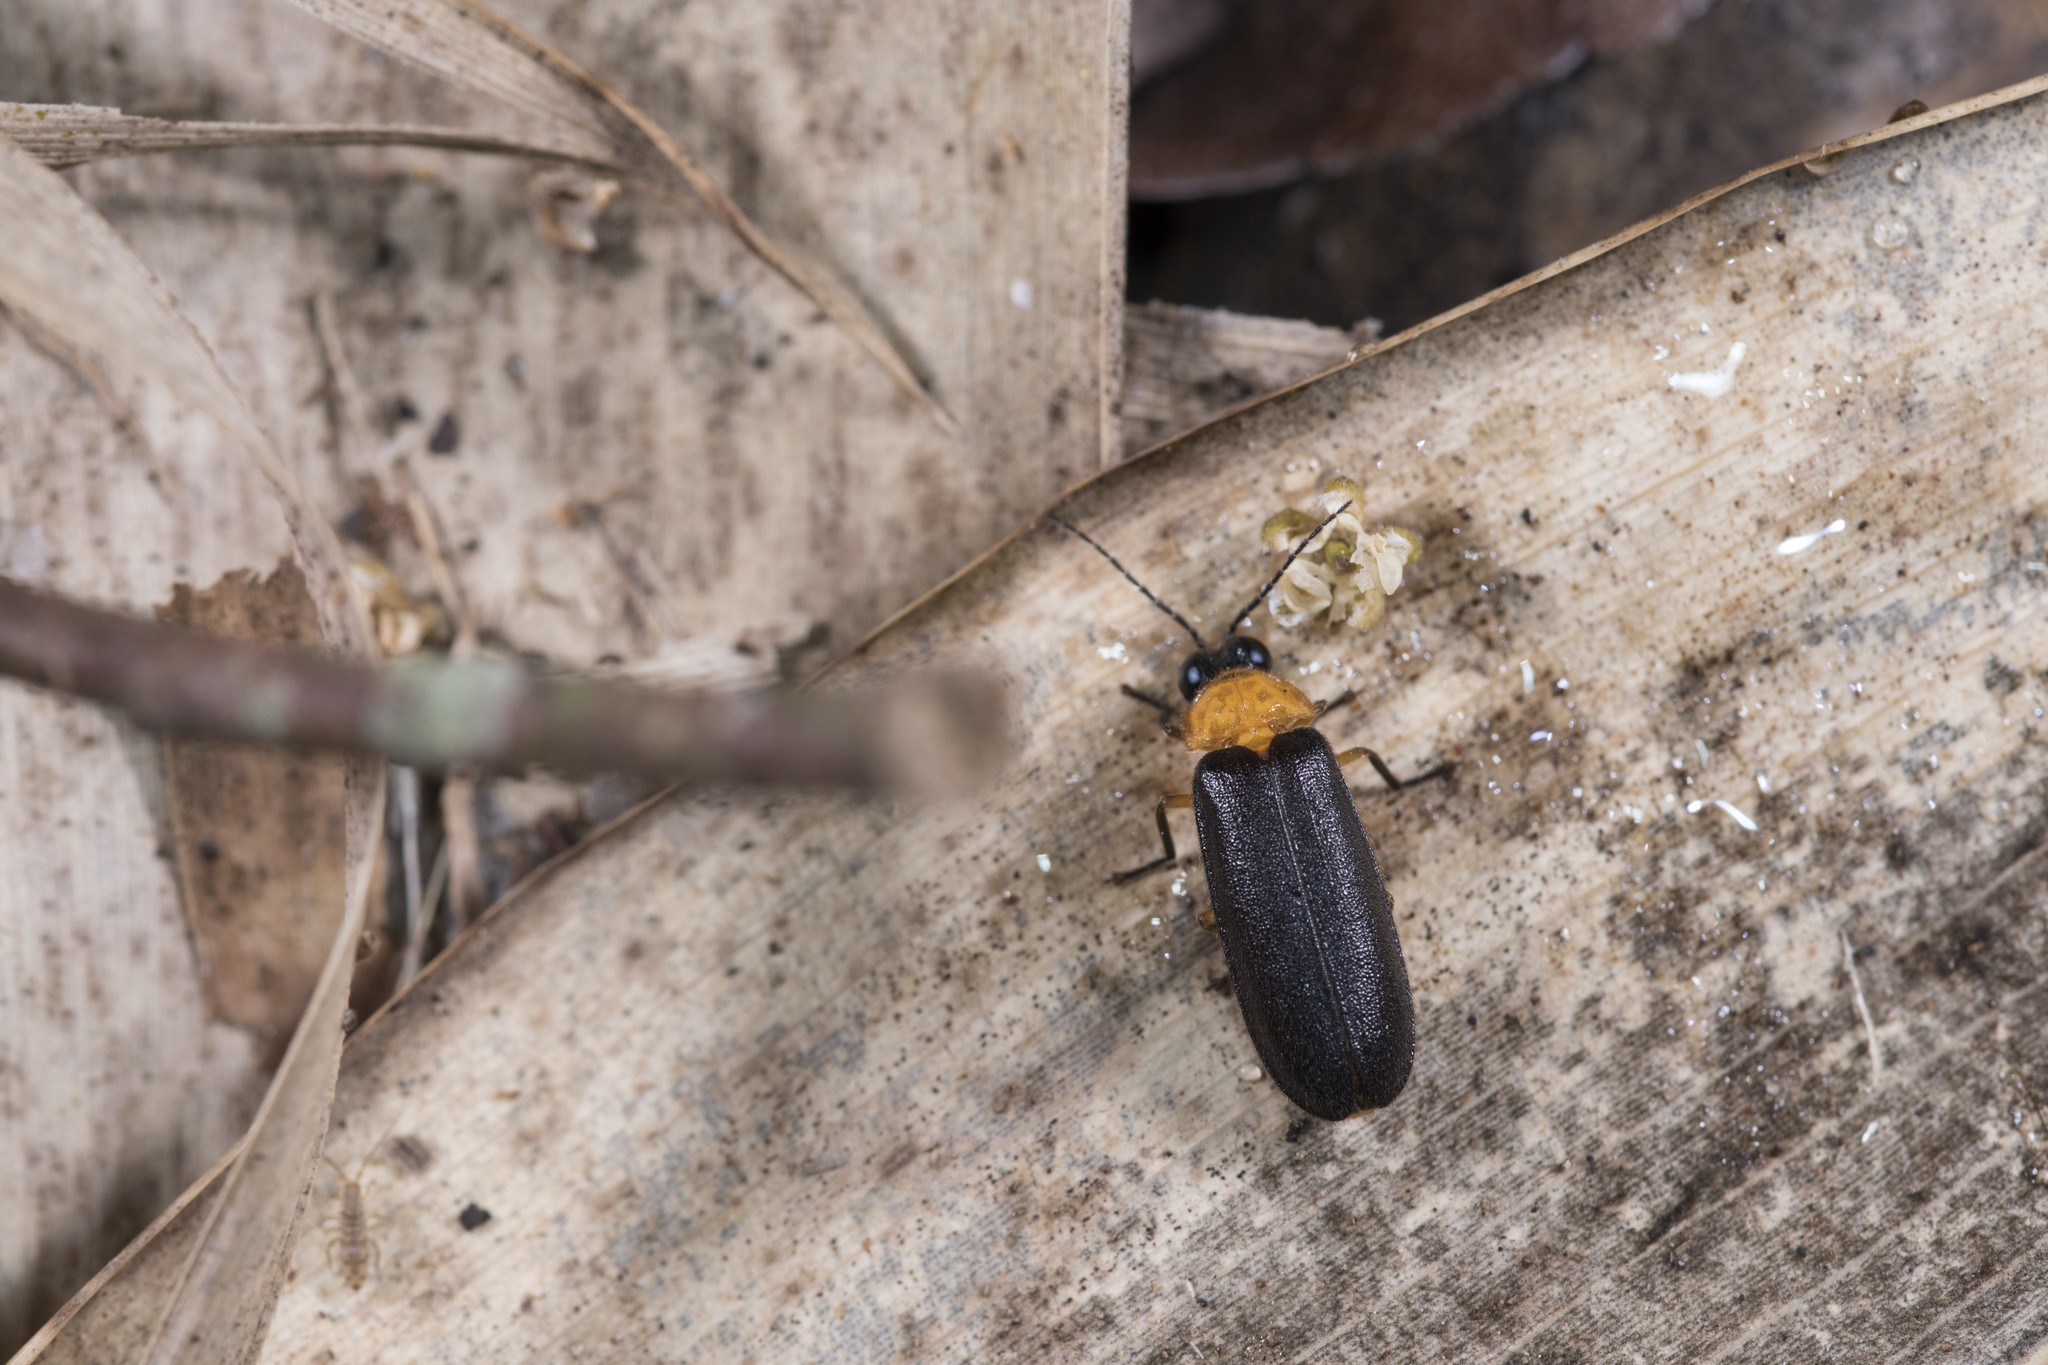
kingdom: Animalia
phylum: Arthropoda
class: Insecta
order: Coleoptera
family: Lampyridae
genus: Abscondita
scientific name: Abscondita cerata
